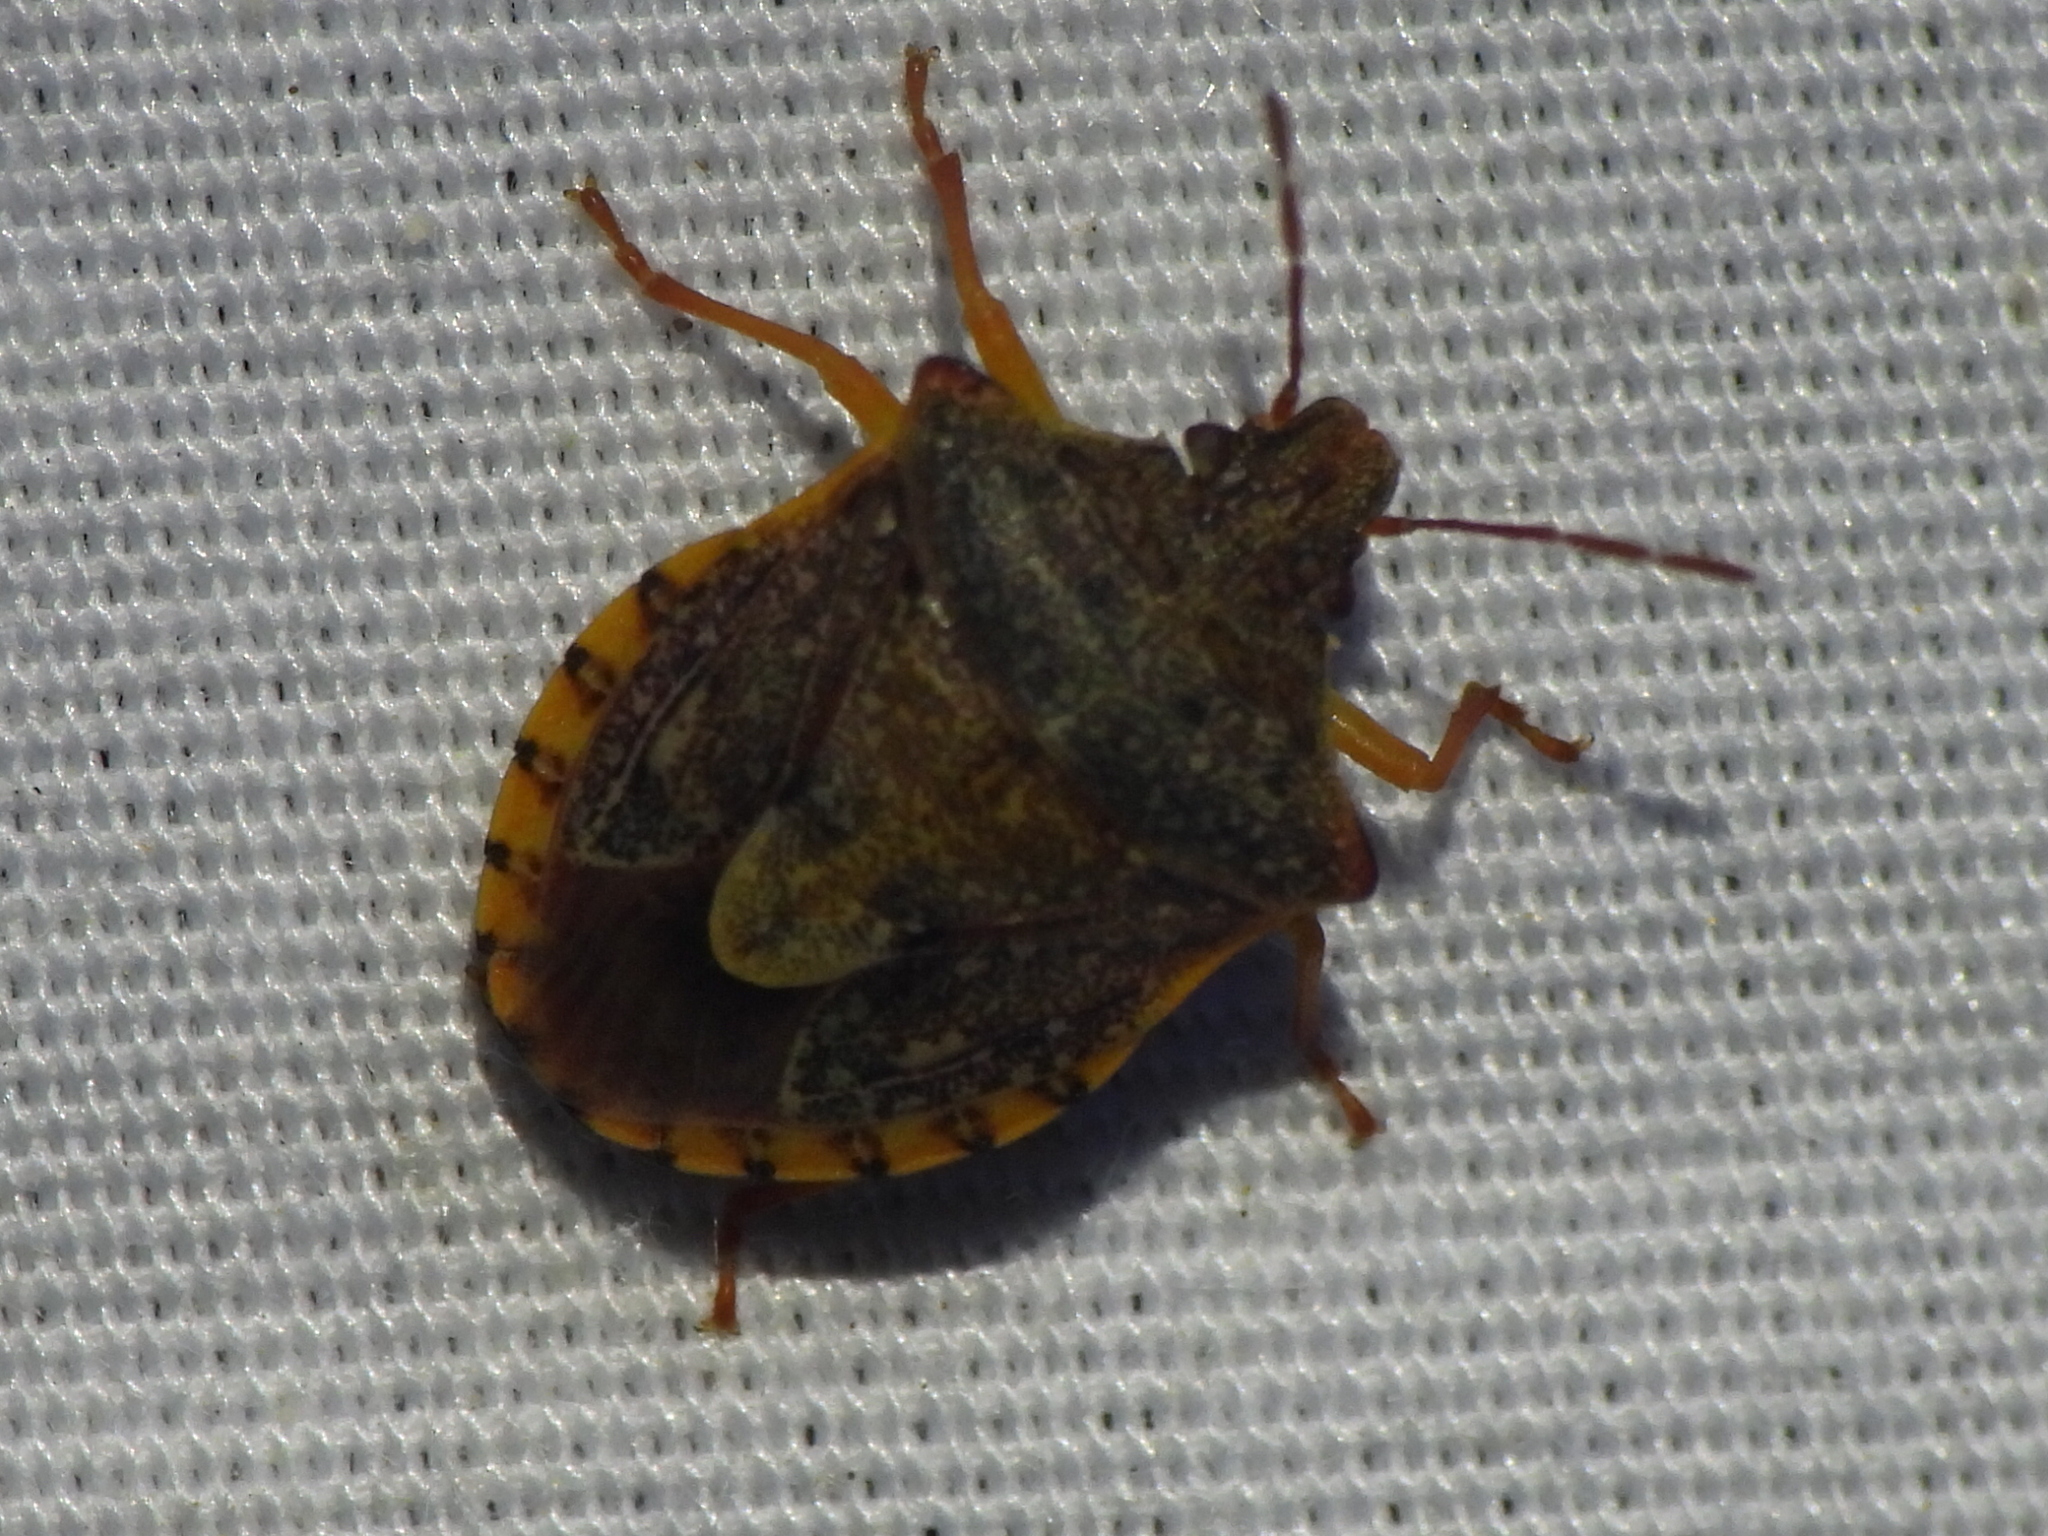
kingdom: Animalia
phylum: Arthropoda
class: Insecta
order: Hemiptera
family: Pentatomidae
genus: Dendrocoris
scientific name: Dendrocoris humeralis
